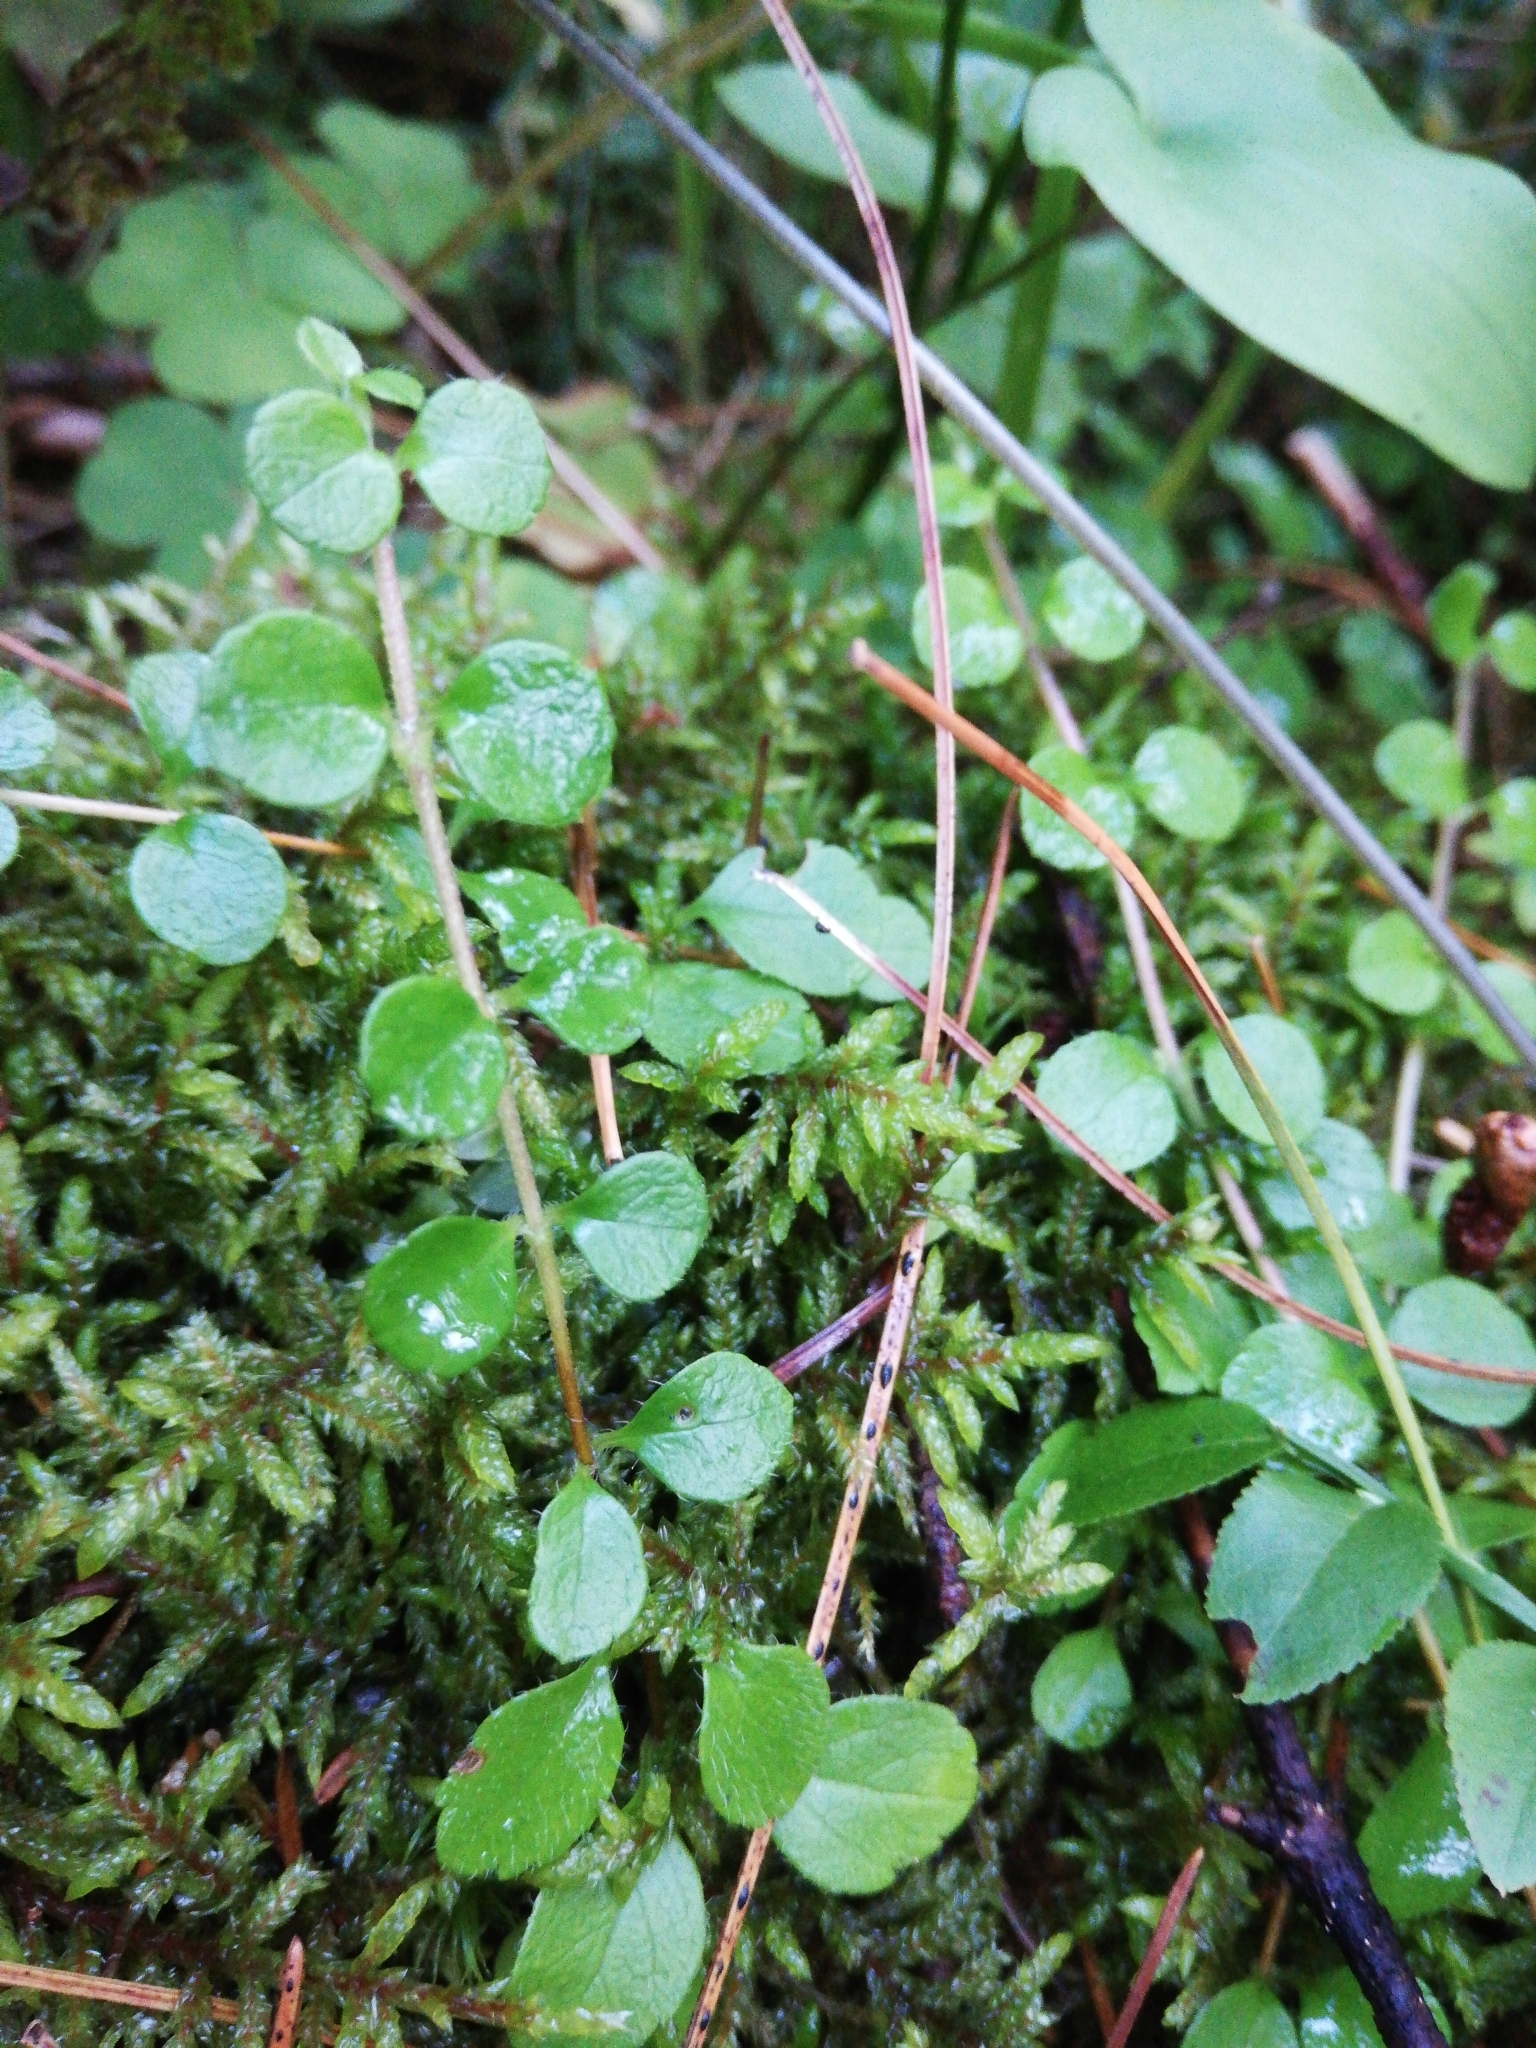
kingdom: Plantae
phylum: Tracheophyta
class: Magnoliopsida
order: Dipsacales
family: Caprifoliaceae
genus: Linnaea
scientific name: Linnaea borealis
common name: Twinflower
